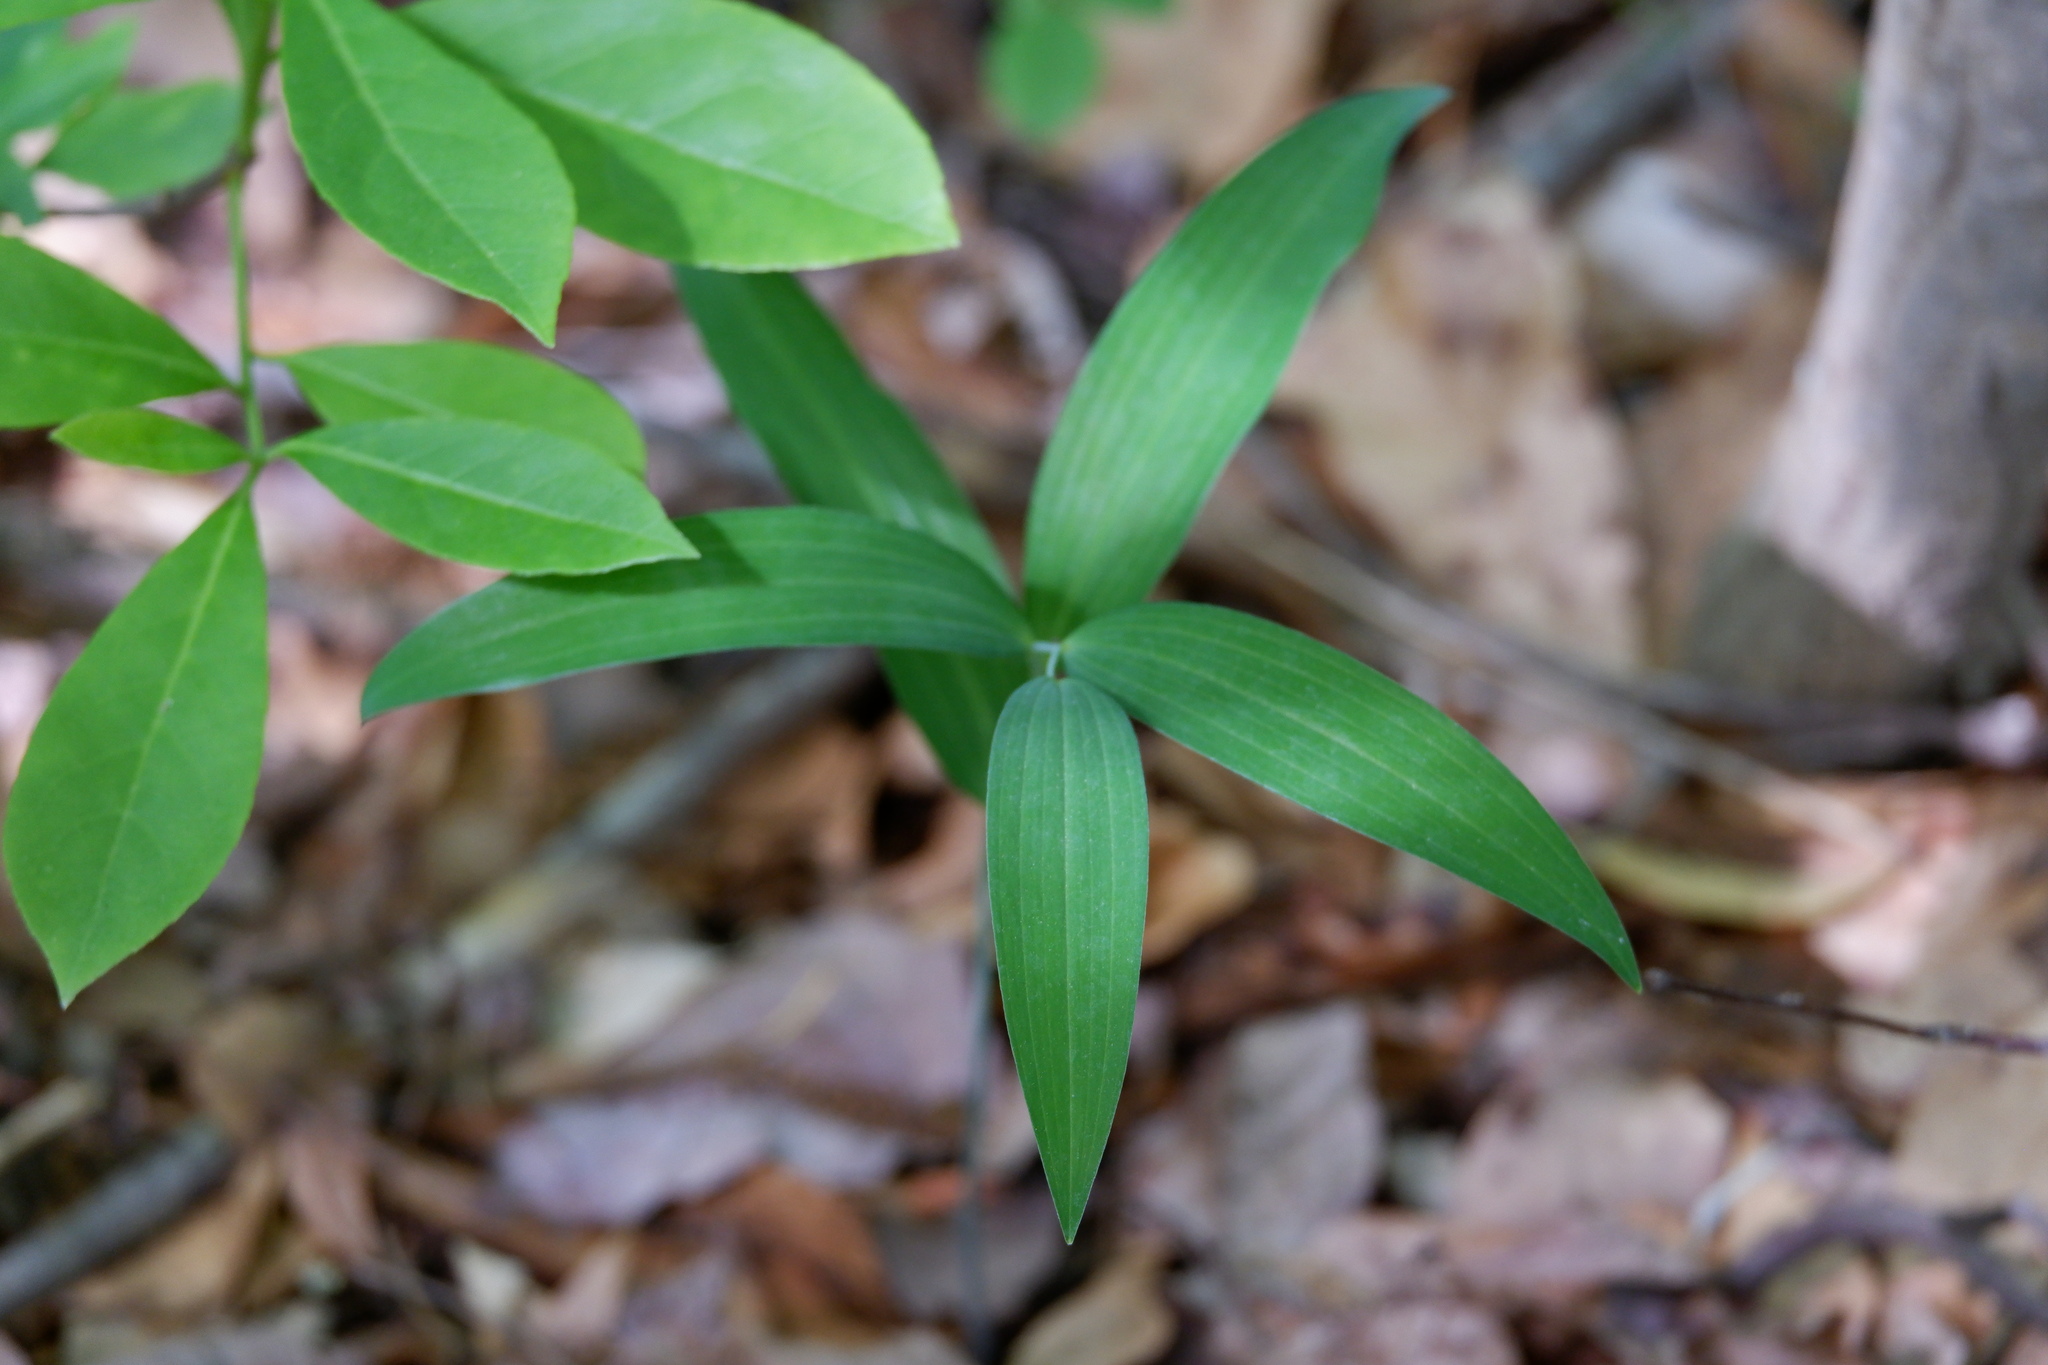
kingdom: Plantae
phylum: Tracheophyta
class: Liliopsida
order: Asparagales
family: Asparagaceae
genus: Polygonatum
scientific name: Polygonatum biflorum
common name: American solomon's-seal
